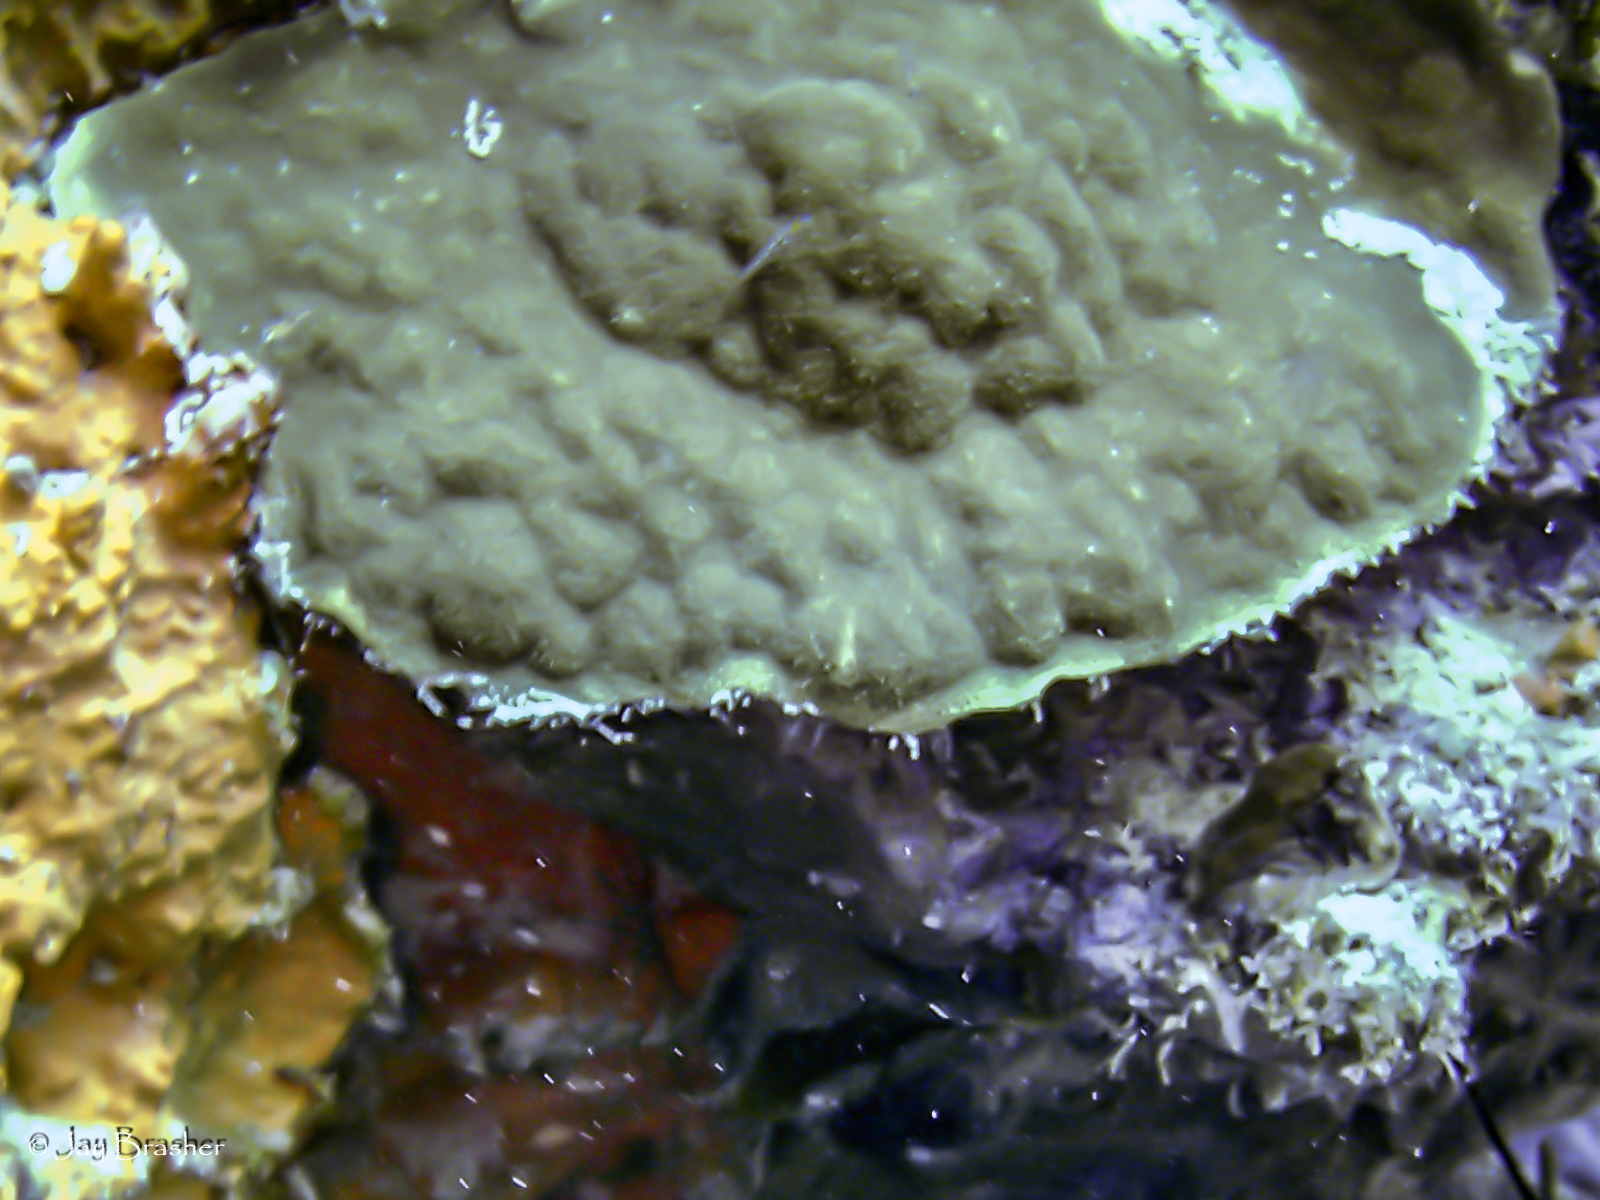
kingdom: Animalia
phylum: Cnidaria
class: Anthozoa
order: Scleractinia
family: Poritidae
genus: Porites
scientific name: Porites astreoides
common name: Mustard hill coral
